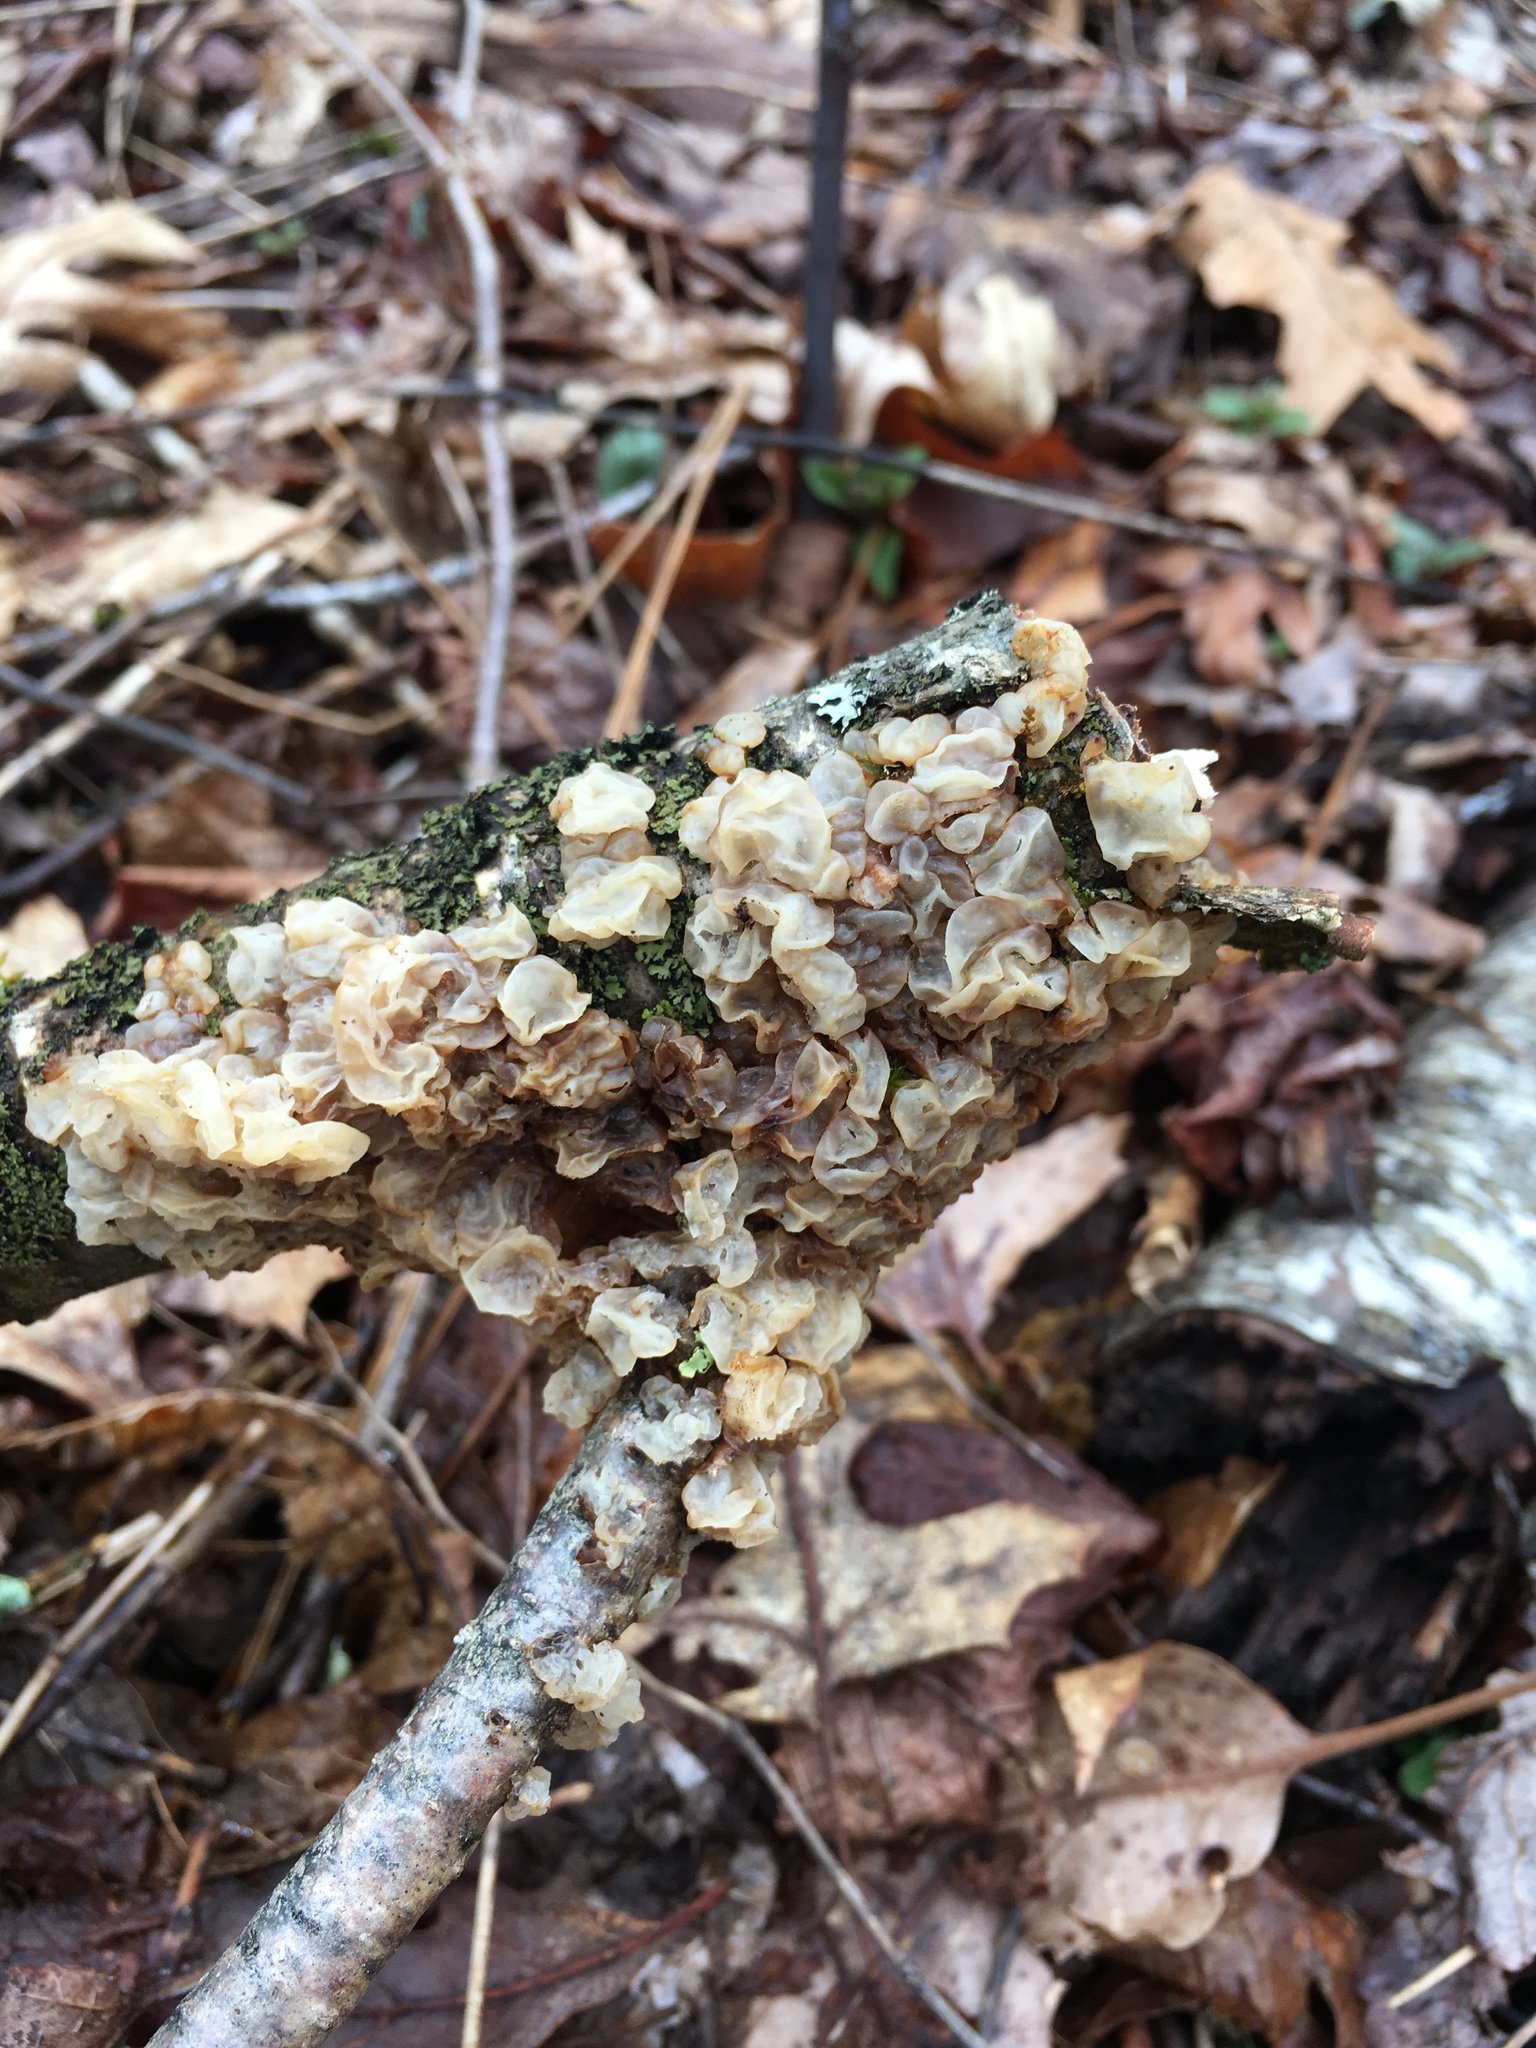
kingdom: Fungi
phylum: Basidiomycota
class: Agaricomycetes
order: Auriculariales
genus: Ductifera
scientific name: Ductifera pululahuana
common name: White jelly fungus
